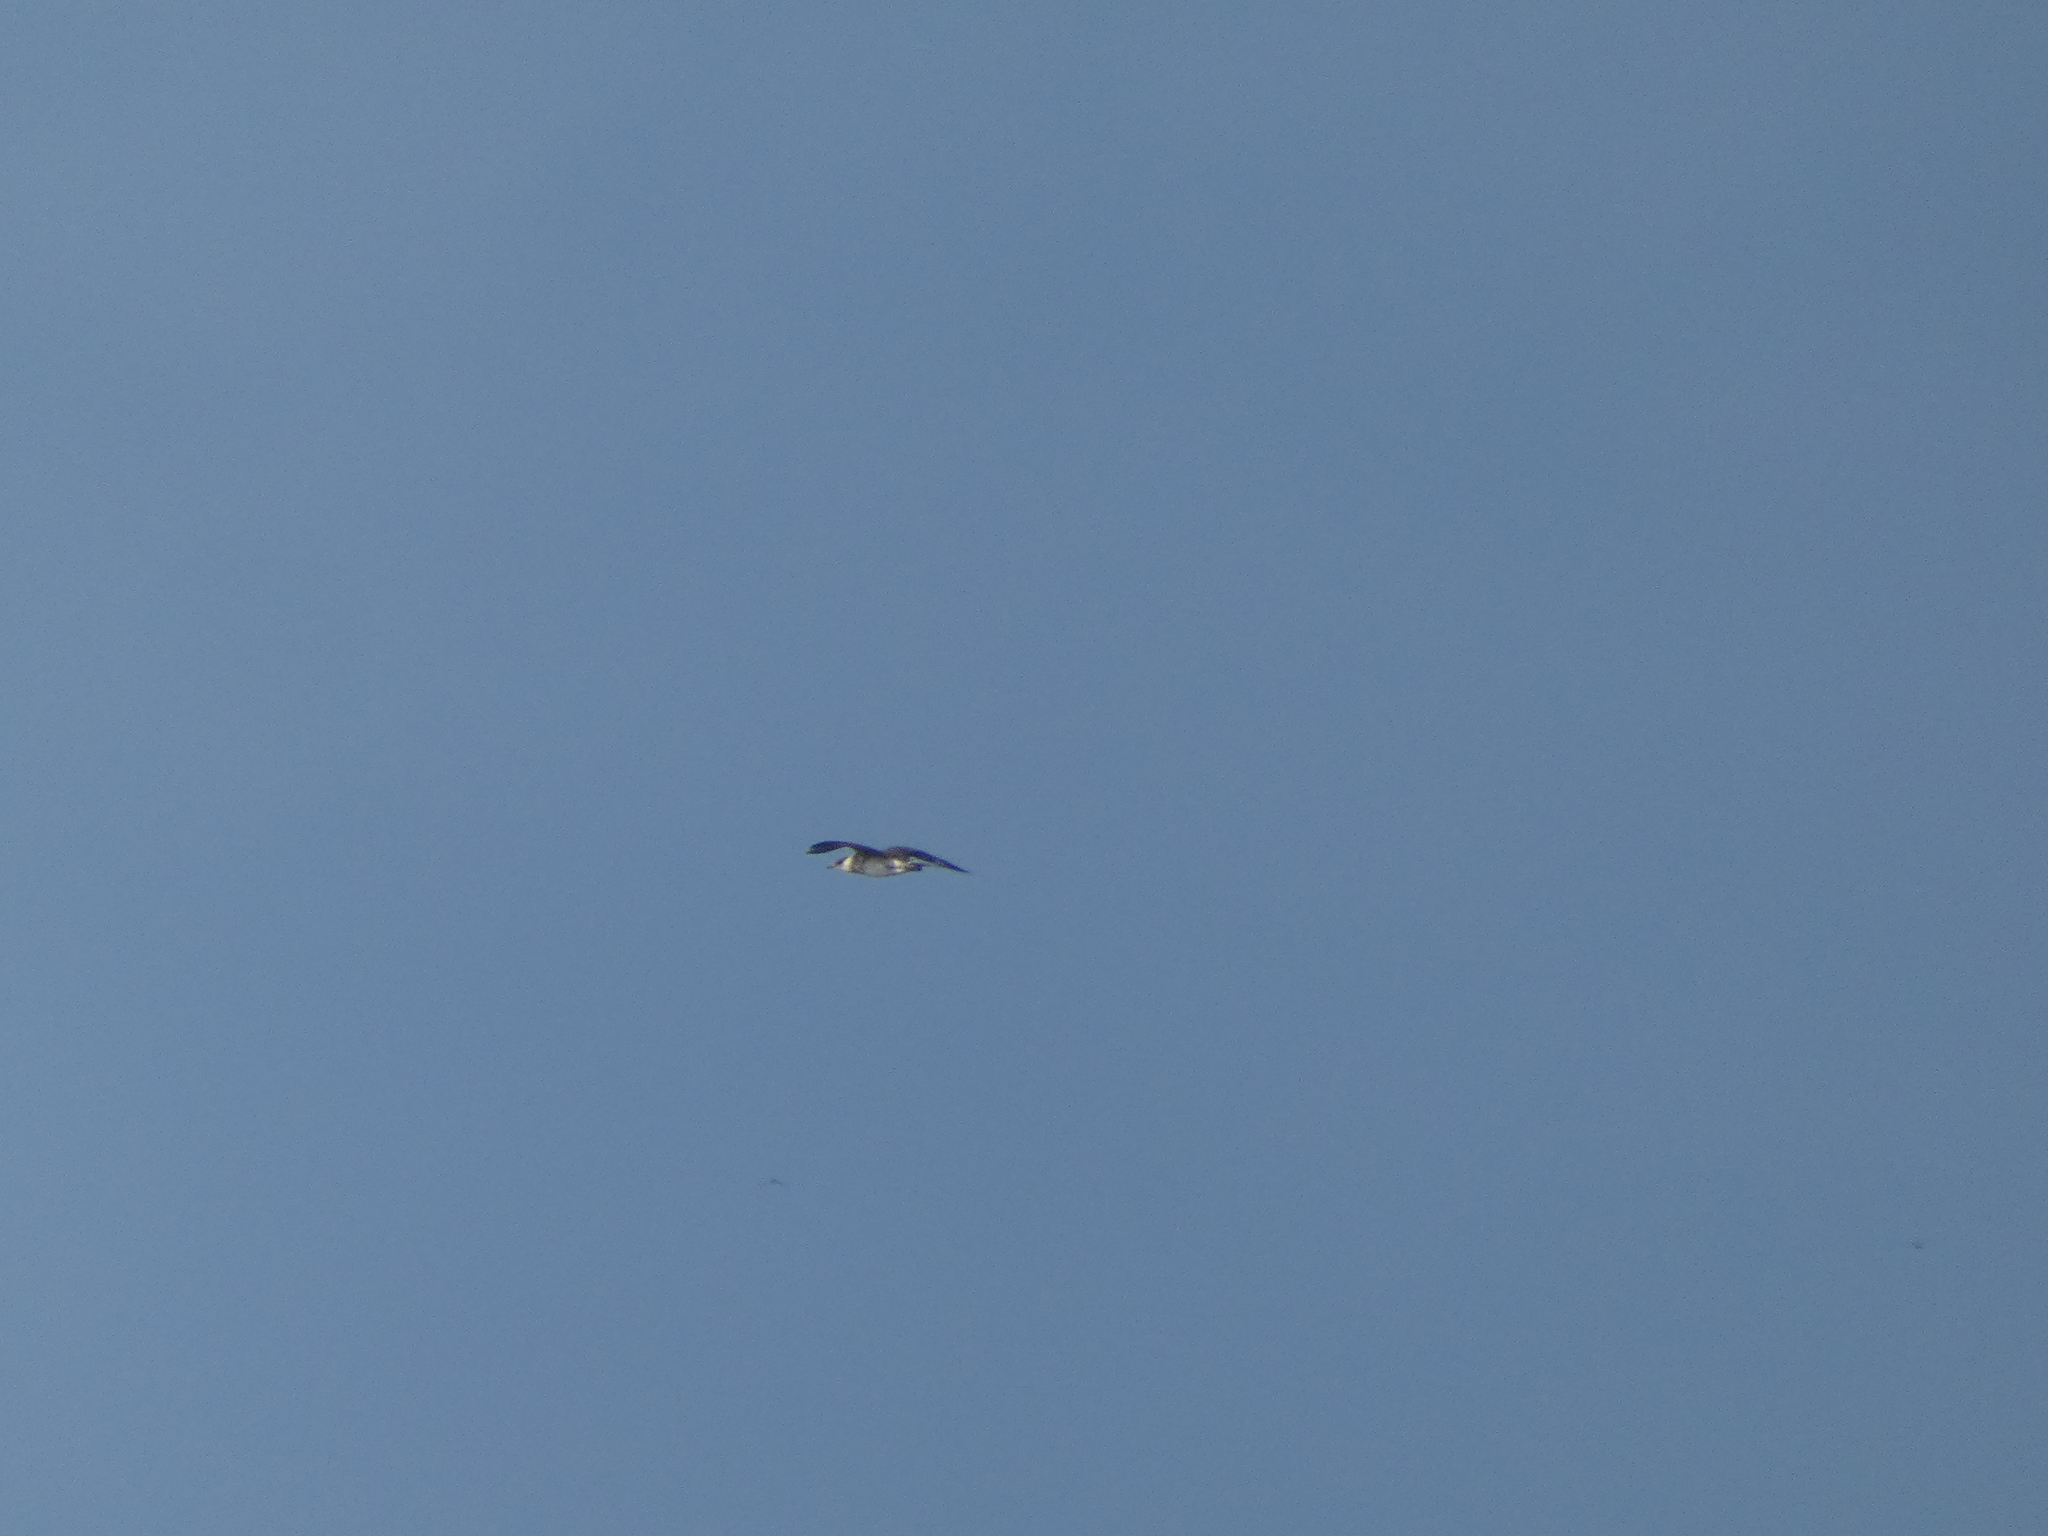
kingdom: Animalia
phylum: Chordata
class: Aves
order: Charadriiformes
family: Stercorariidae
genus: Stercorarius
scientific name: Stercorarius parasiticus
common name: Parasitic jaeger
